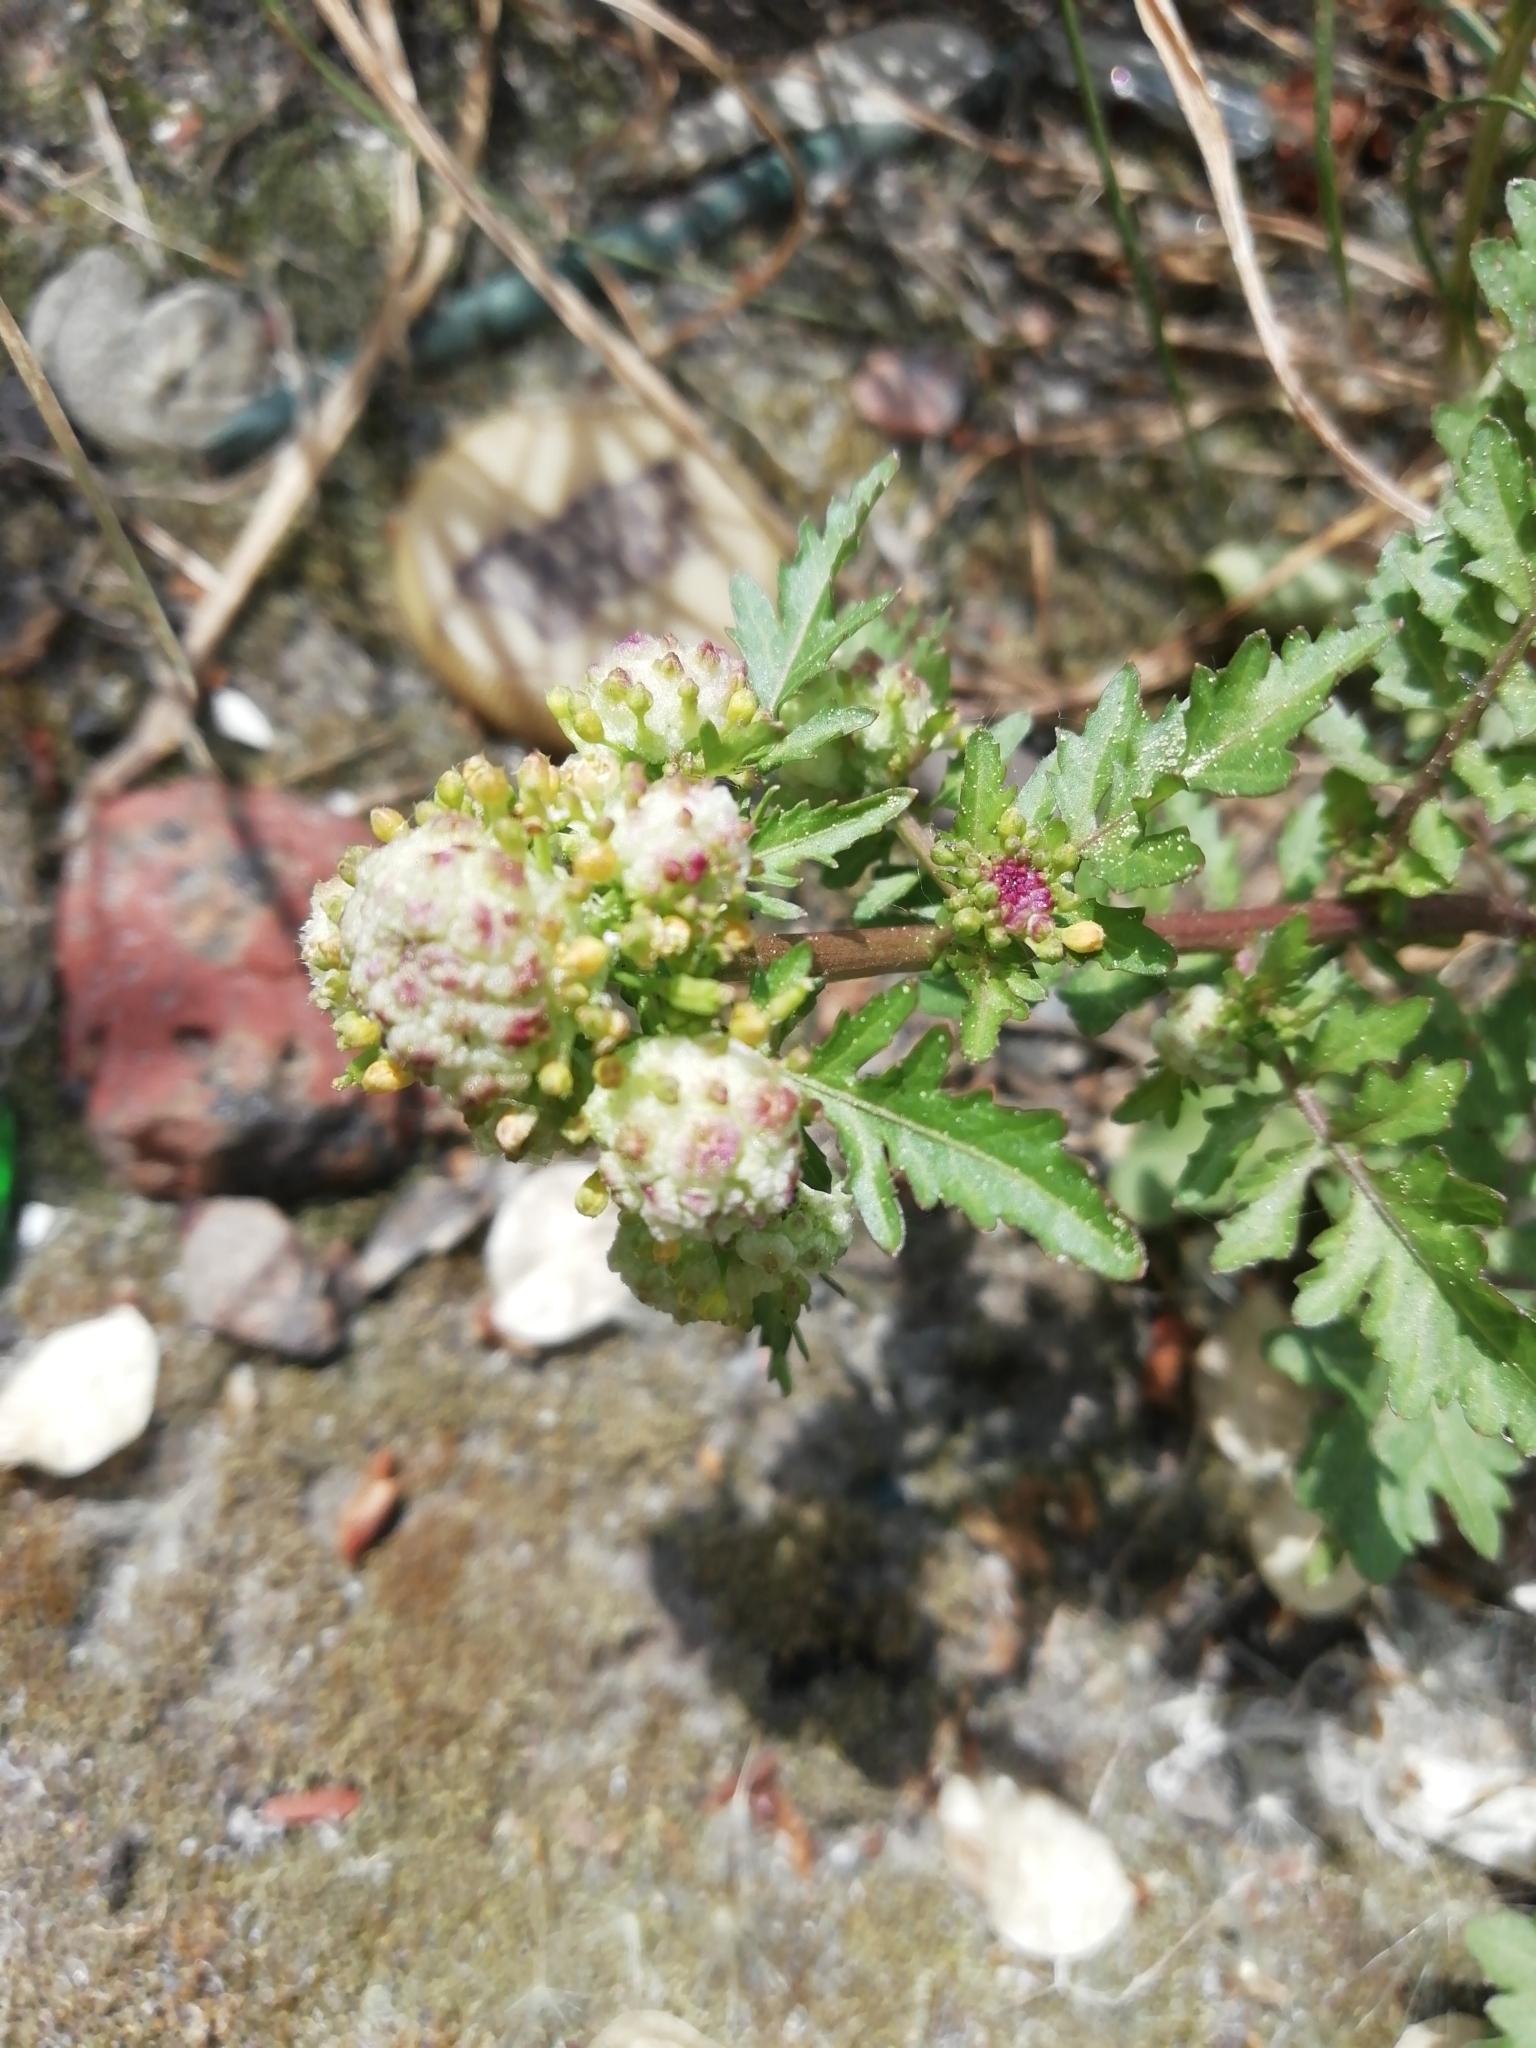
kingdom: Plantae
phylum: Tracheophyta
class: Magnoliopsida
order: Brassicales
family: Brassicaceae
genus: Rorippa
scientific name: Rorippa palustris
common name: Marsh yellow-cress
